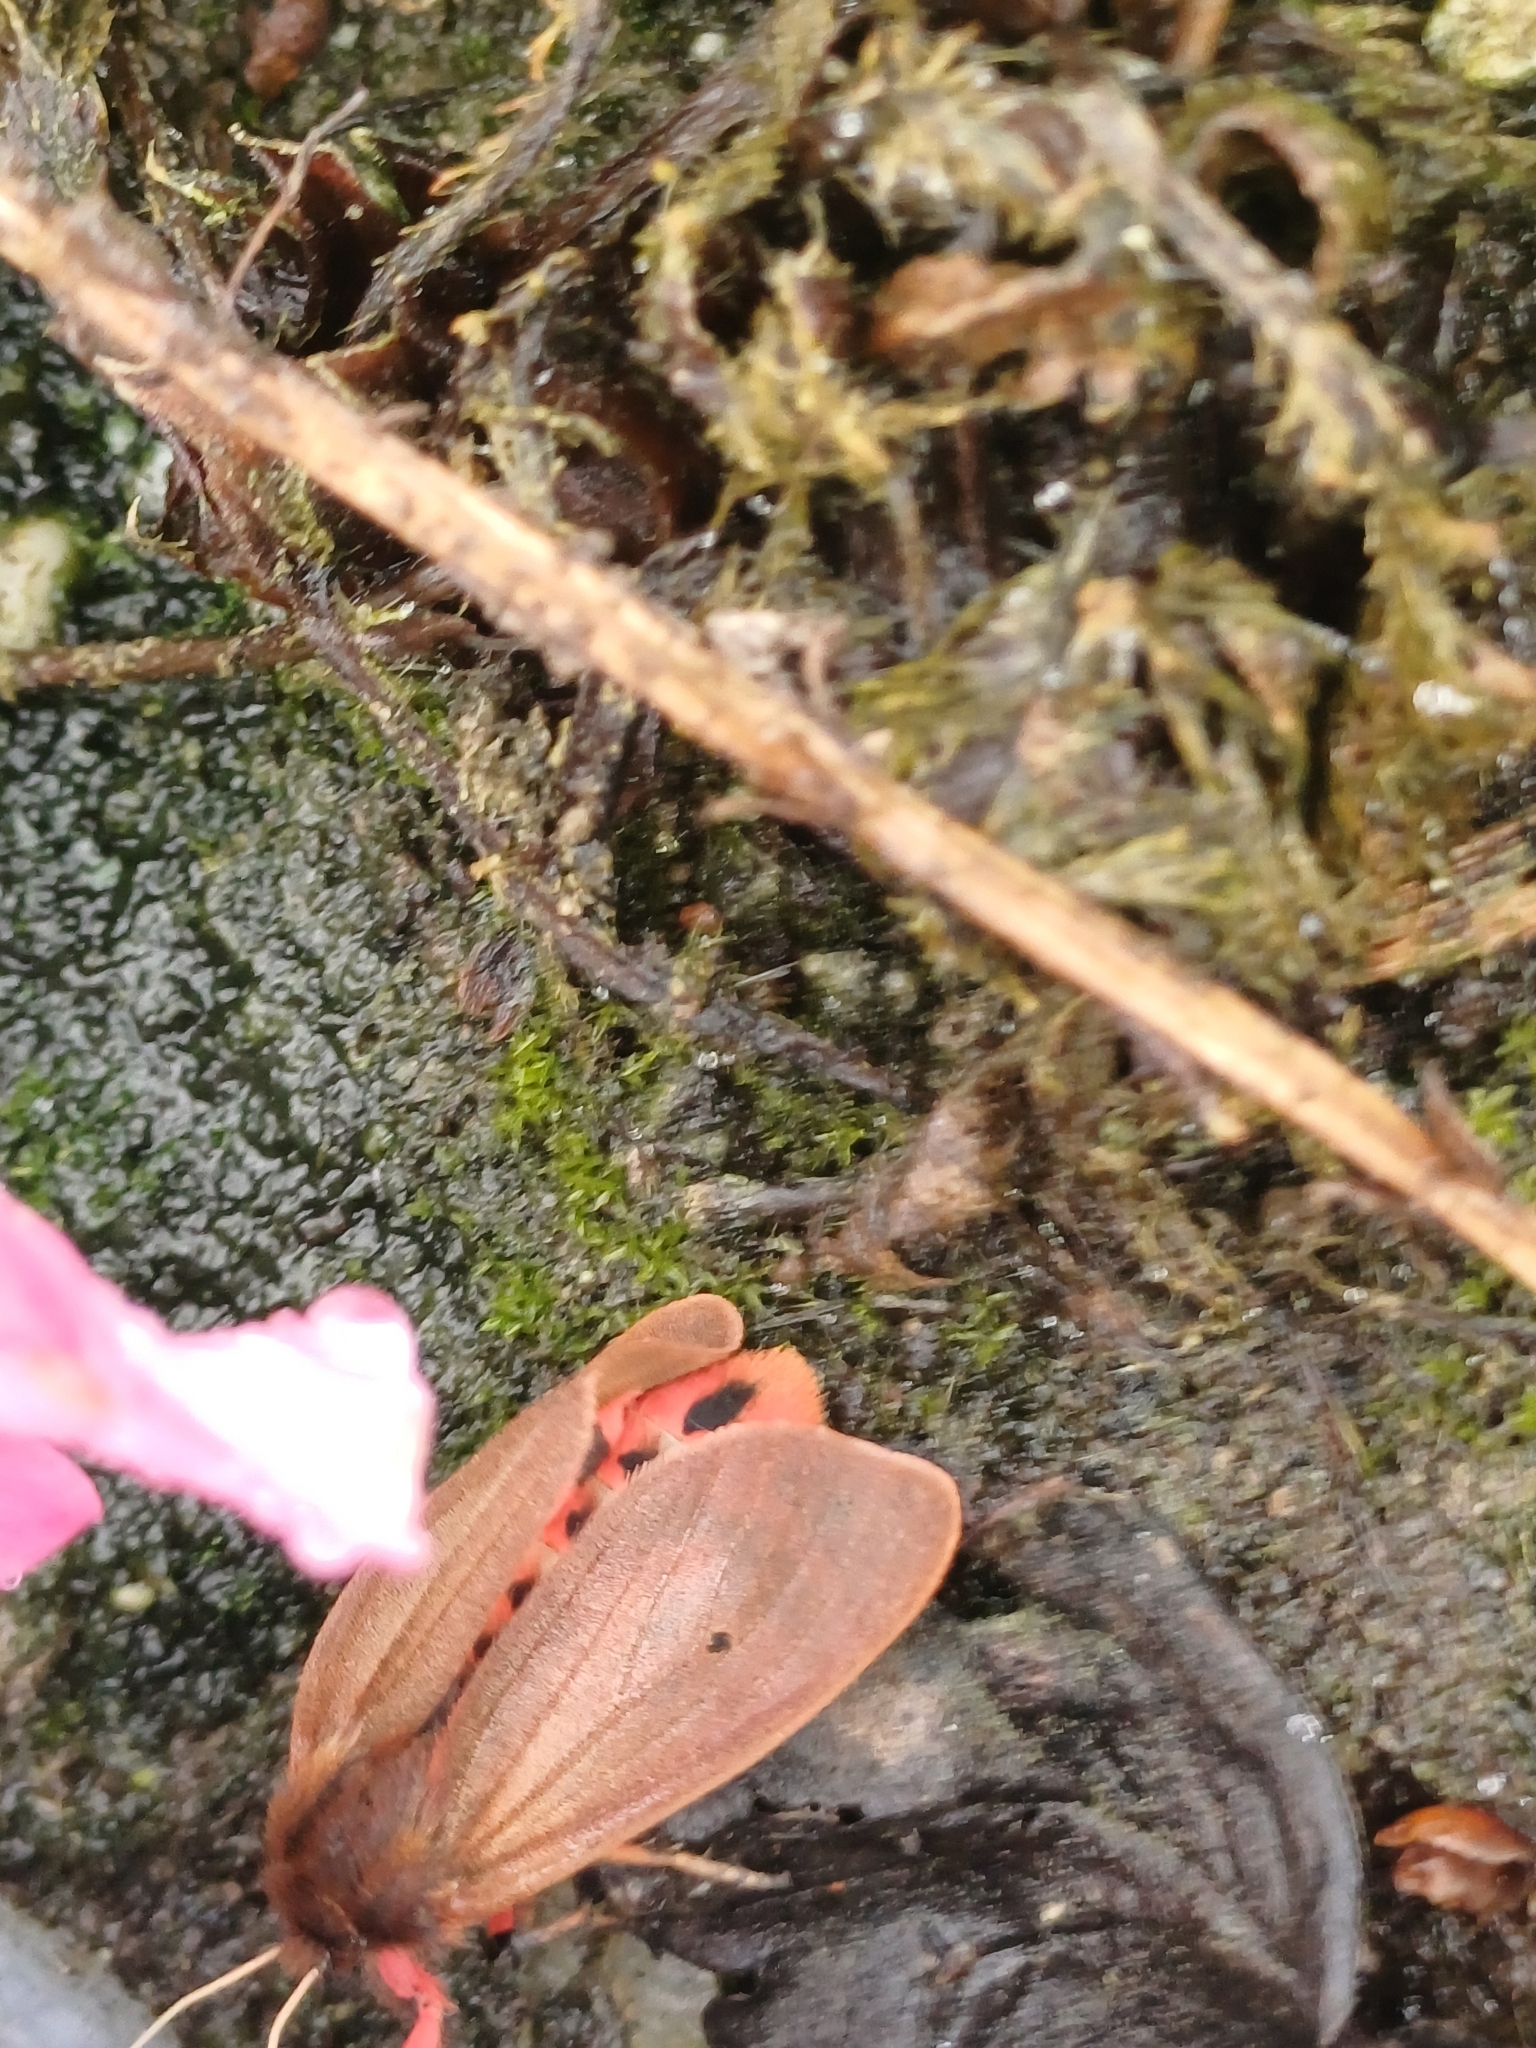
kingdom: Animalia
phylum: Arthropoda
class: Insecta
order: Lepidoptera
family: Erebidae
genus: Phragmatobia
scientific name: Phragmatobia fuliginosa
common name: Ruby tiger
